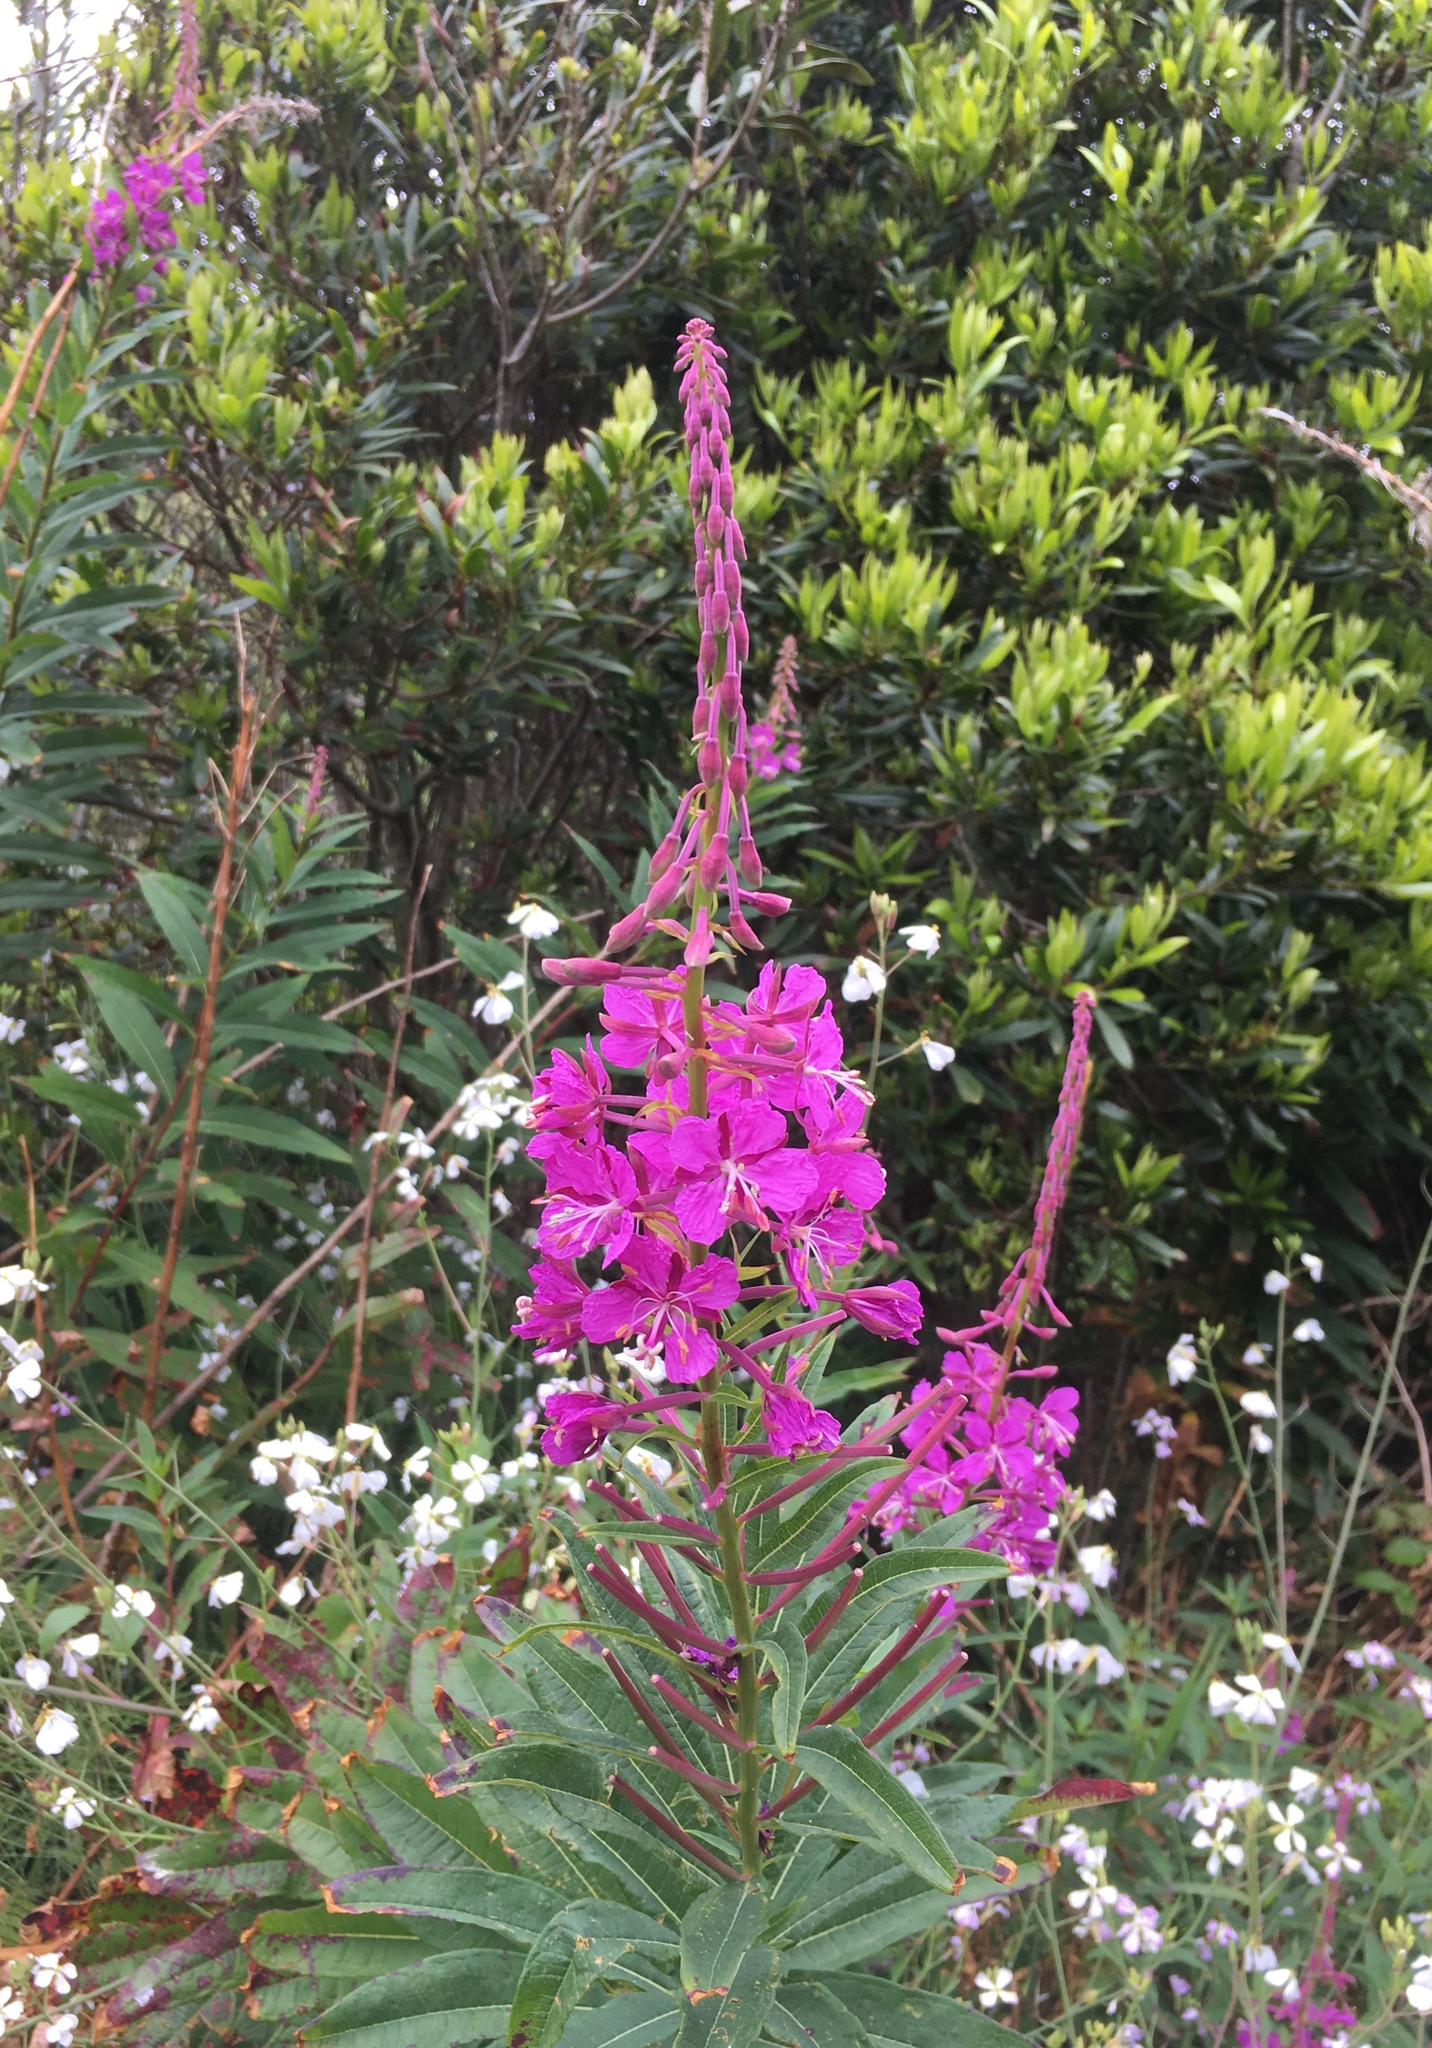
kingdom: Plantae
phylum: Tracheophyta
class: Magnoliopsida
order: Myrtales
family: Onagraceae
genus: Chamaenerion
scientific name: Chamaenerion angustifolium
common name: Fireweed
